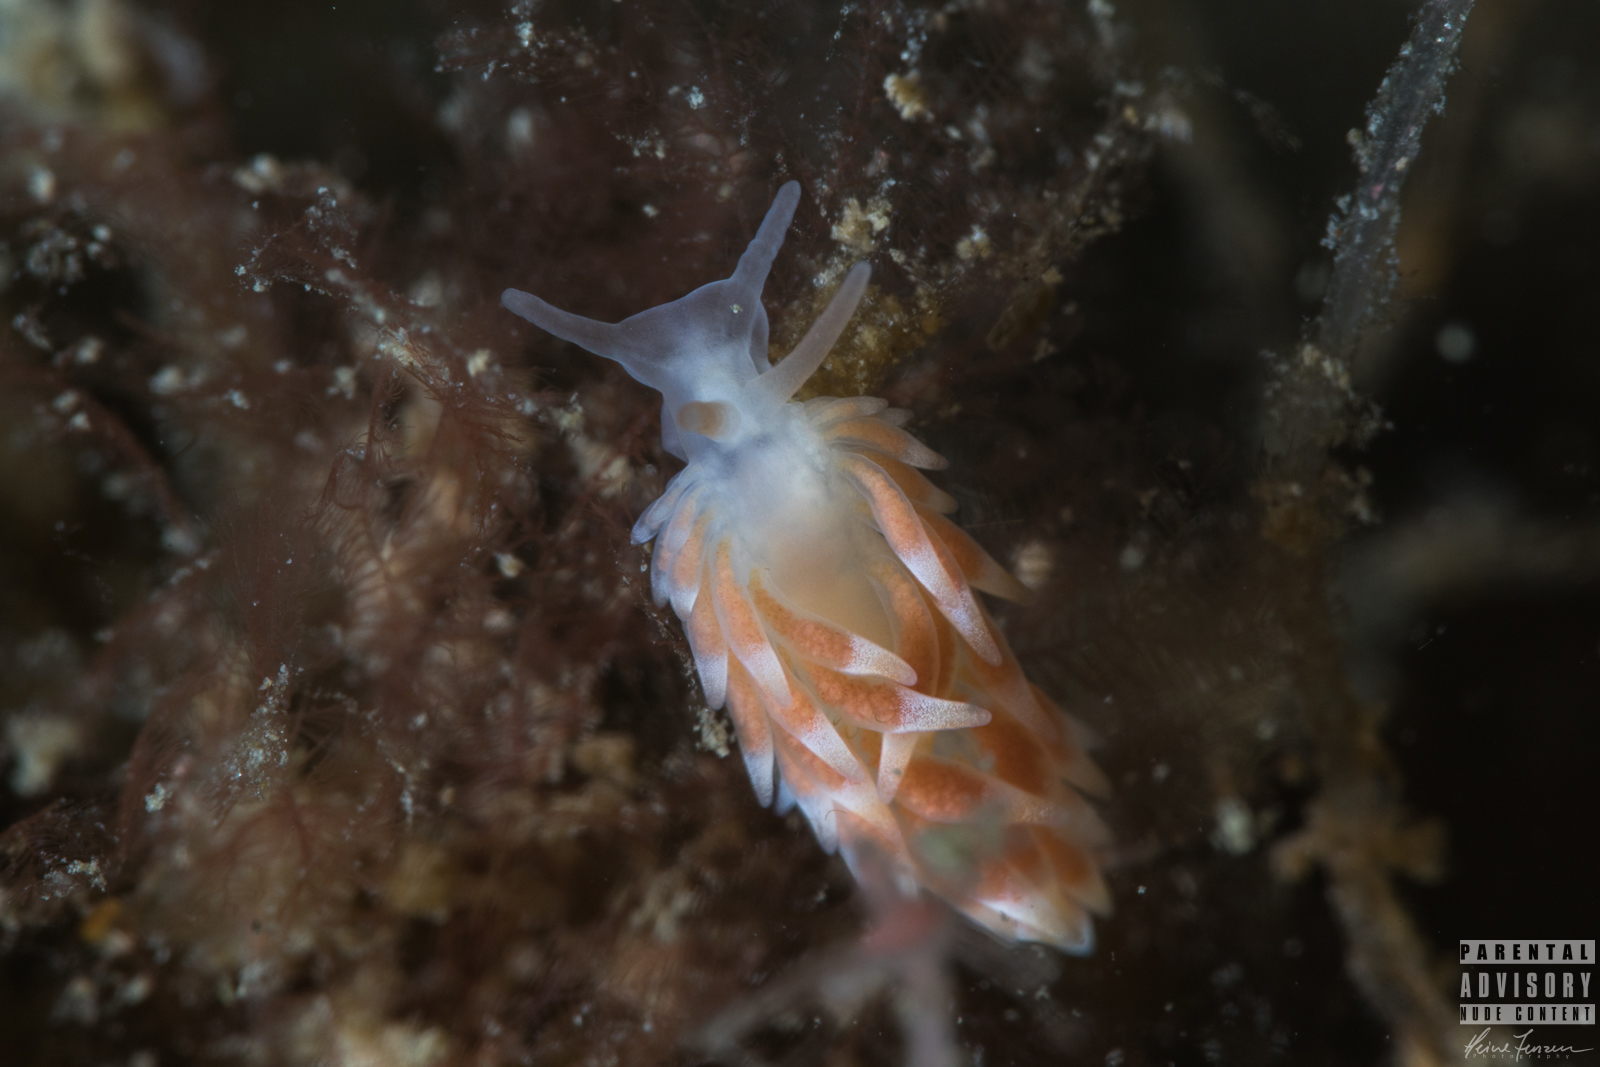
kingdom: Animalia
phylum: Mollusca
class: Gastropoda
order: Nudibranchia
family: Trinchesiidae
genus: Catriona
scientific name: Catriona aurantia
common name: Corange-tip cuthona
